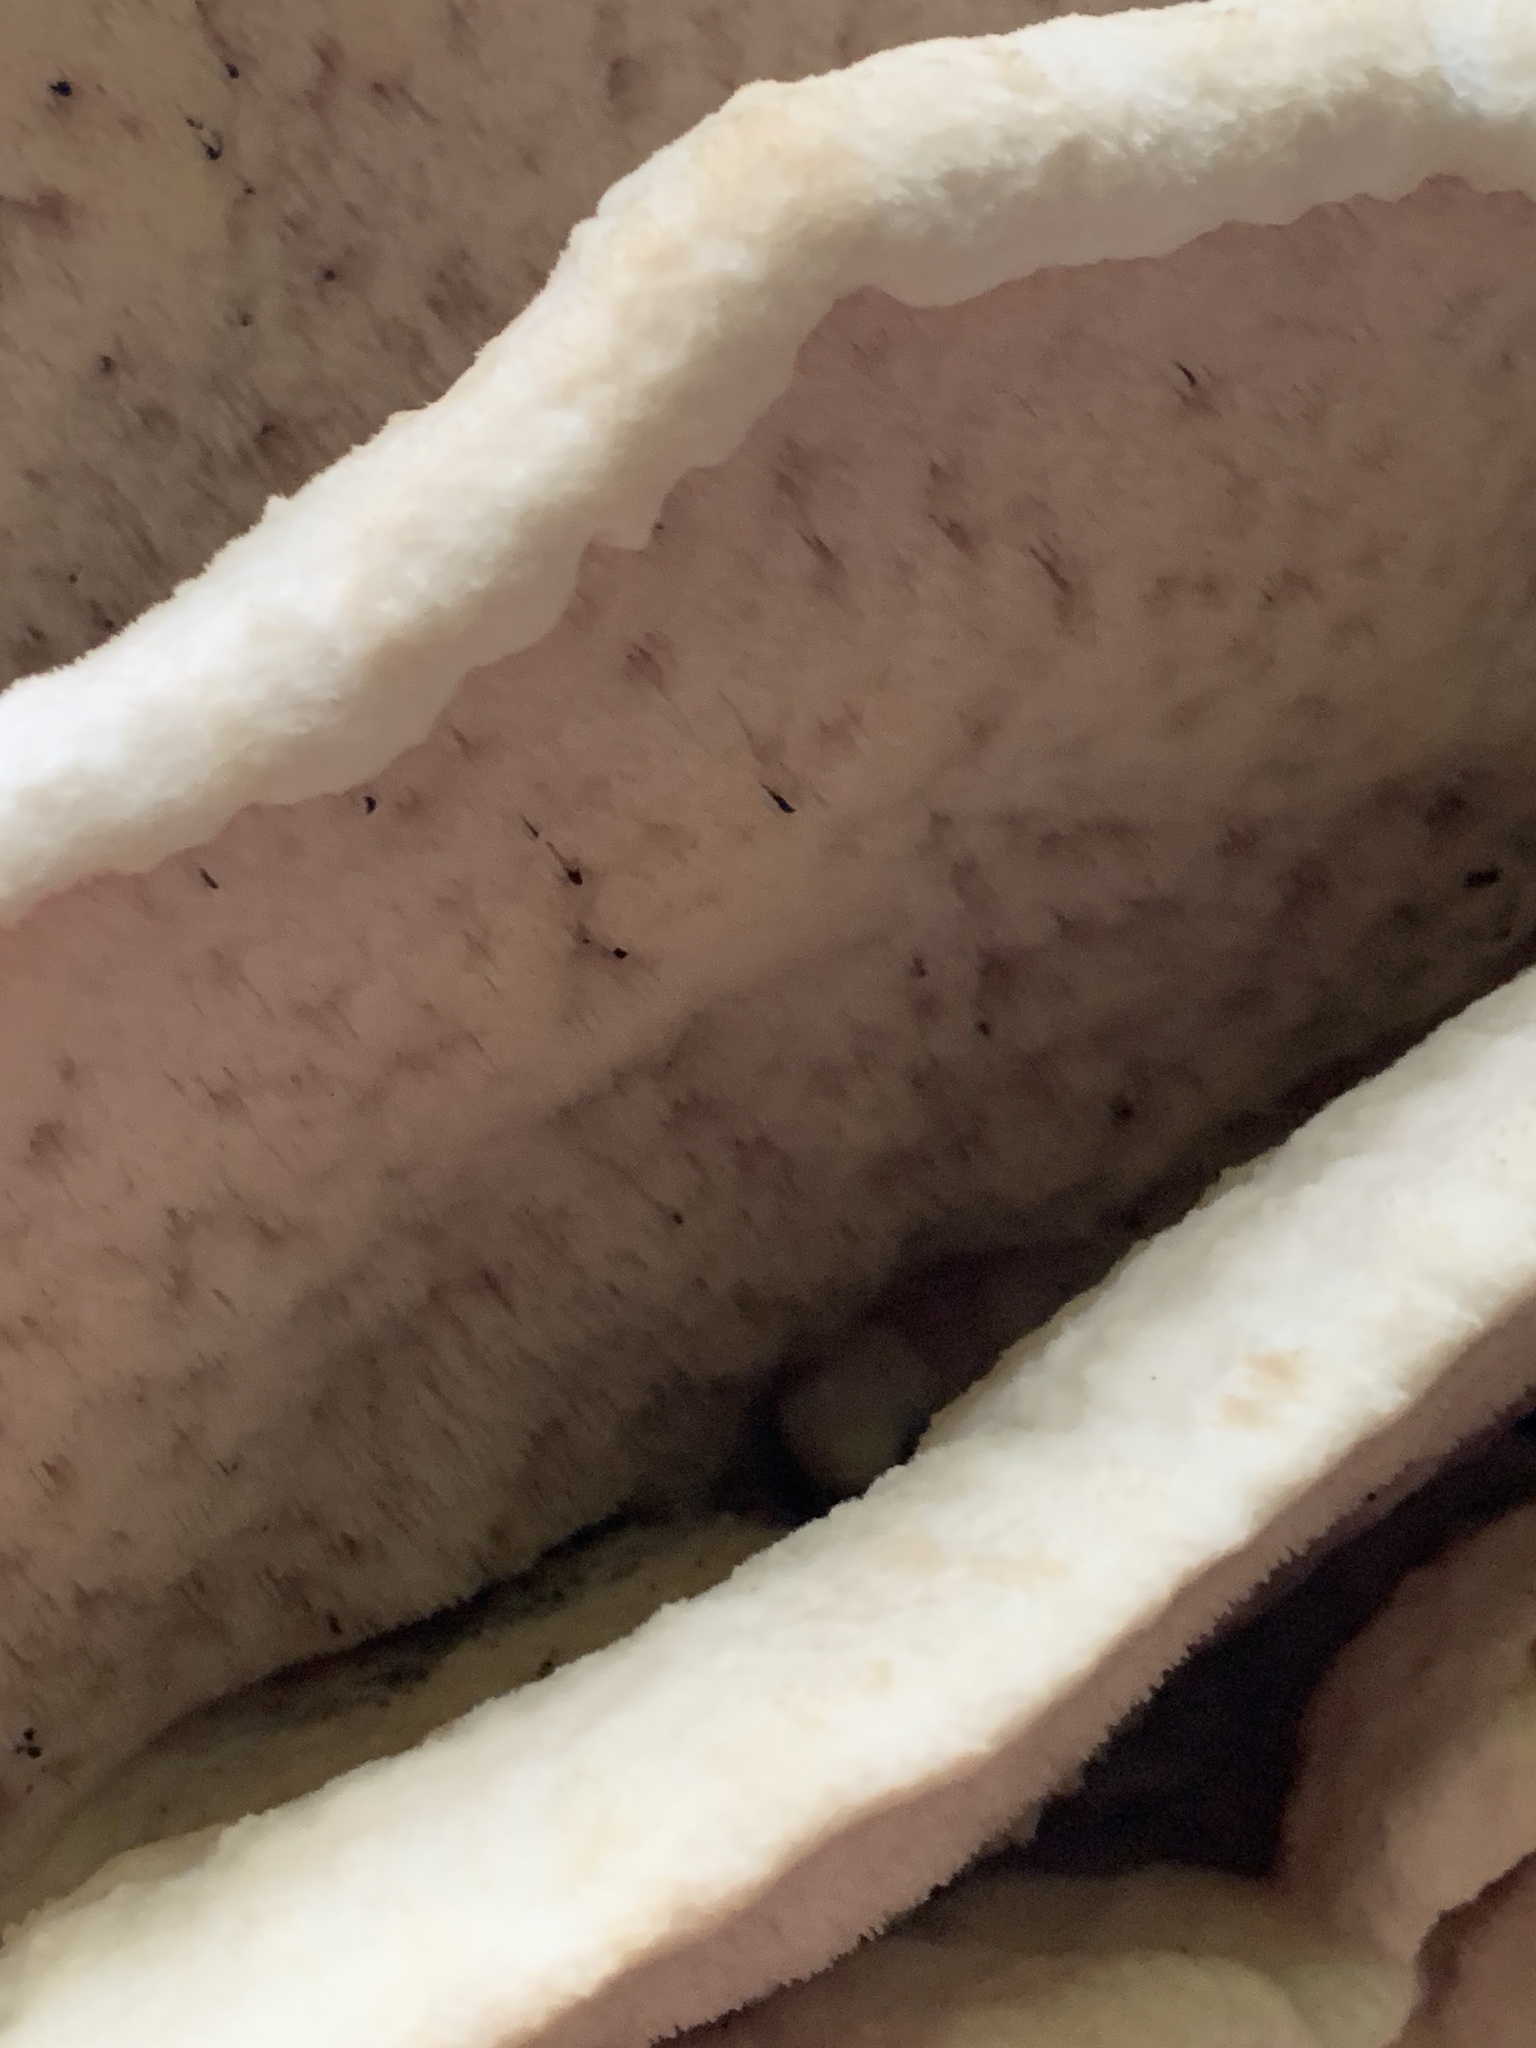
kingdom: Fungi
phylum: Basidiomycota
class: Agaricomycetes
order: Polyporales
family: Meruliaceae
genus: Climacodon
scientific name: Climacodon septentrionalis
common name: Northern tooth
